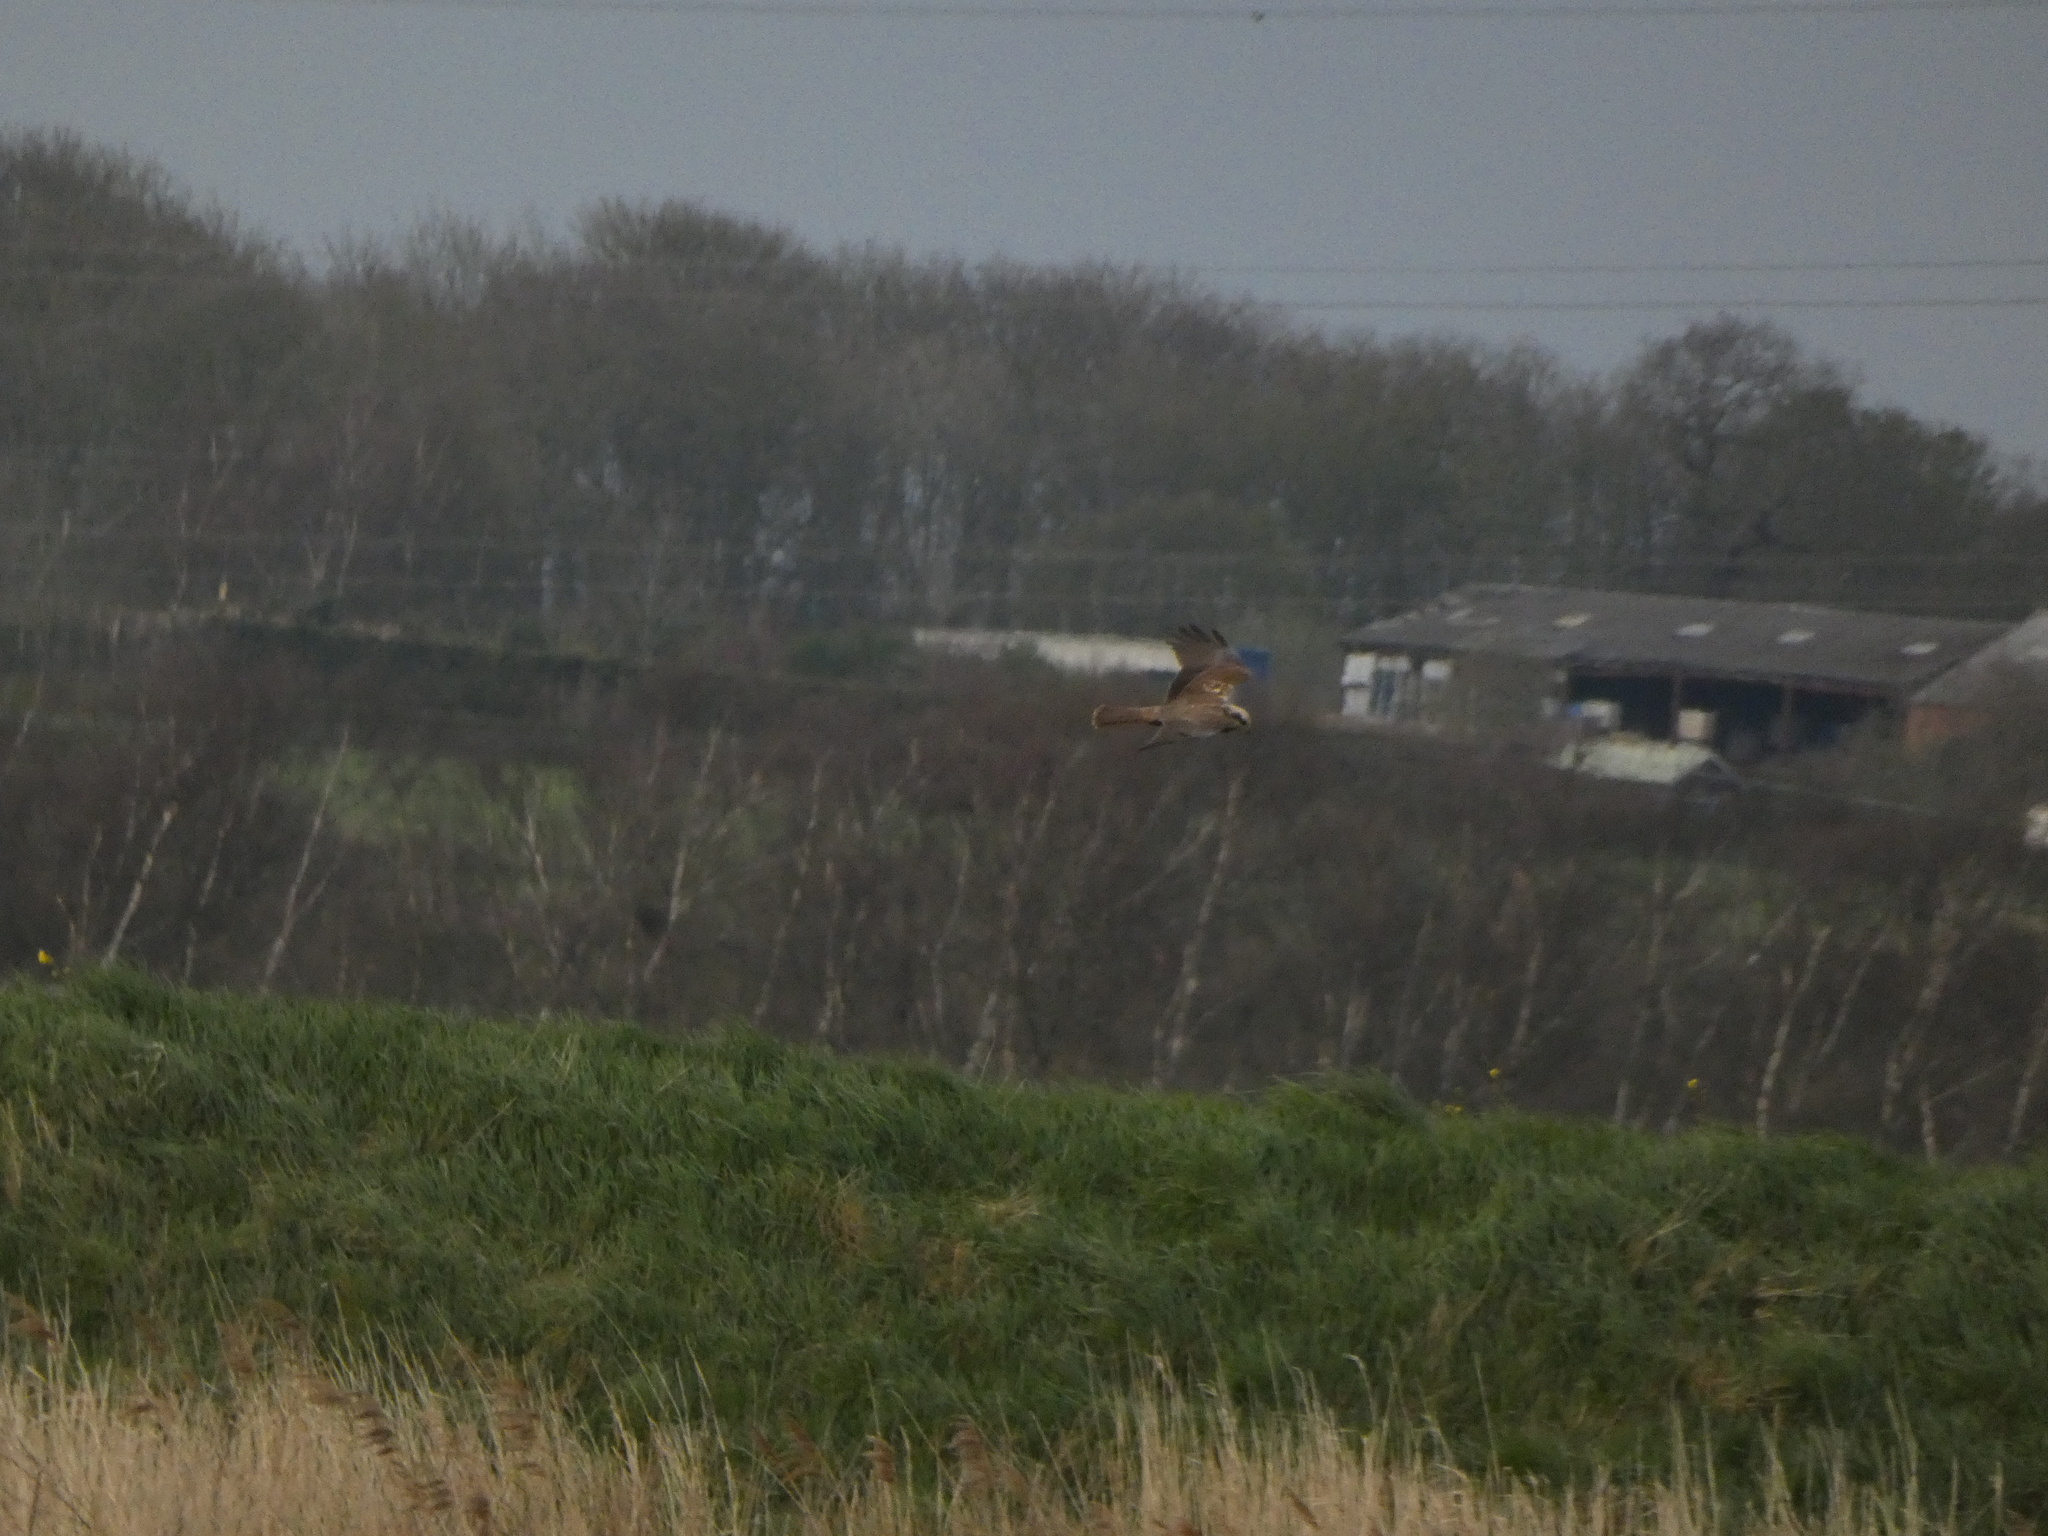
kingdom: Animalia
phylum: Chordata
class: Aves
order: Accipitriformes
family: Accipitridae
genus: Circus
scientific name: Circus aeruginosus
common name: Western marsh harrier
